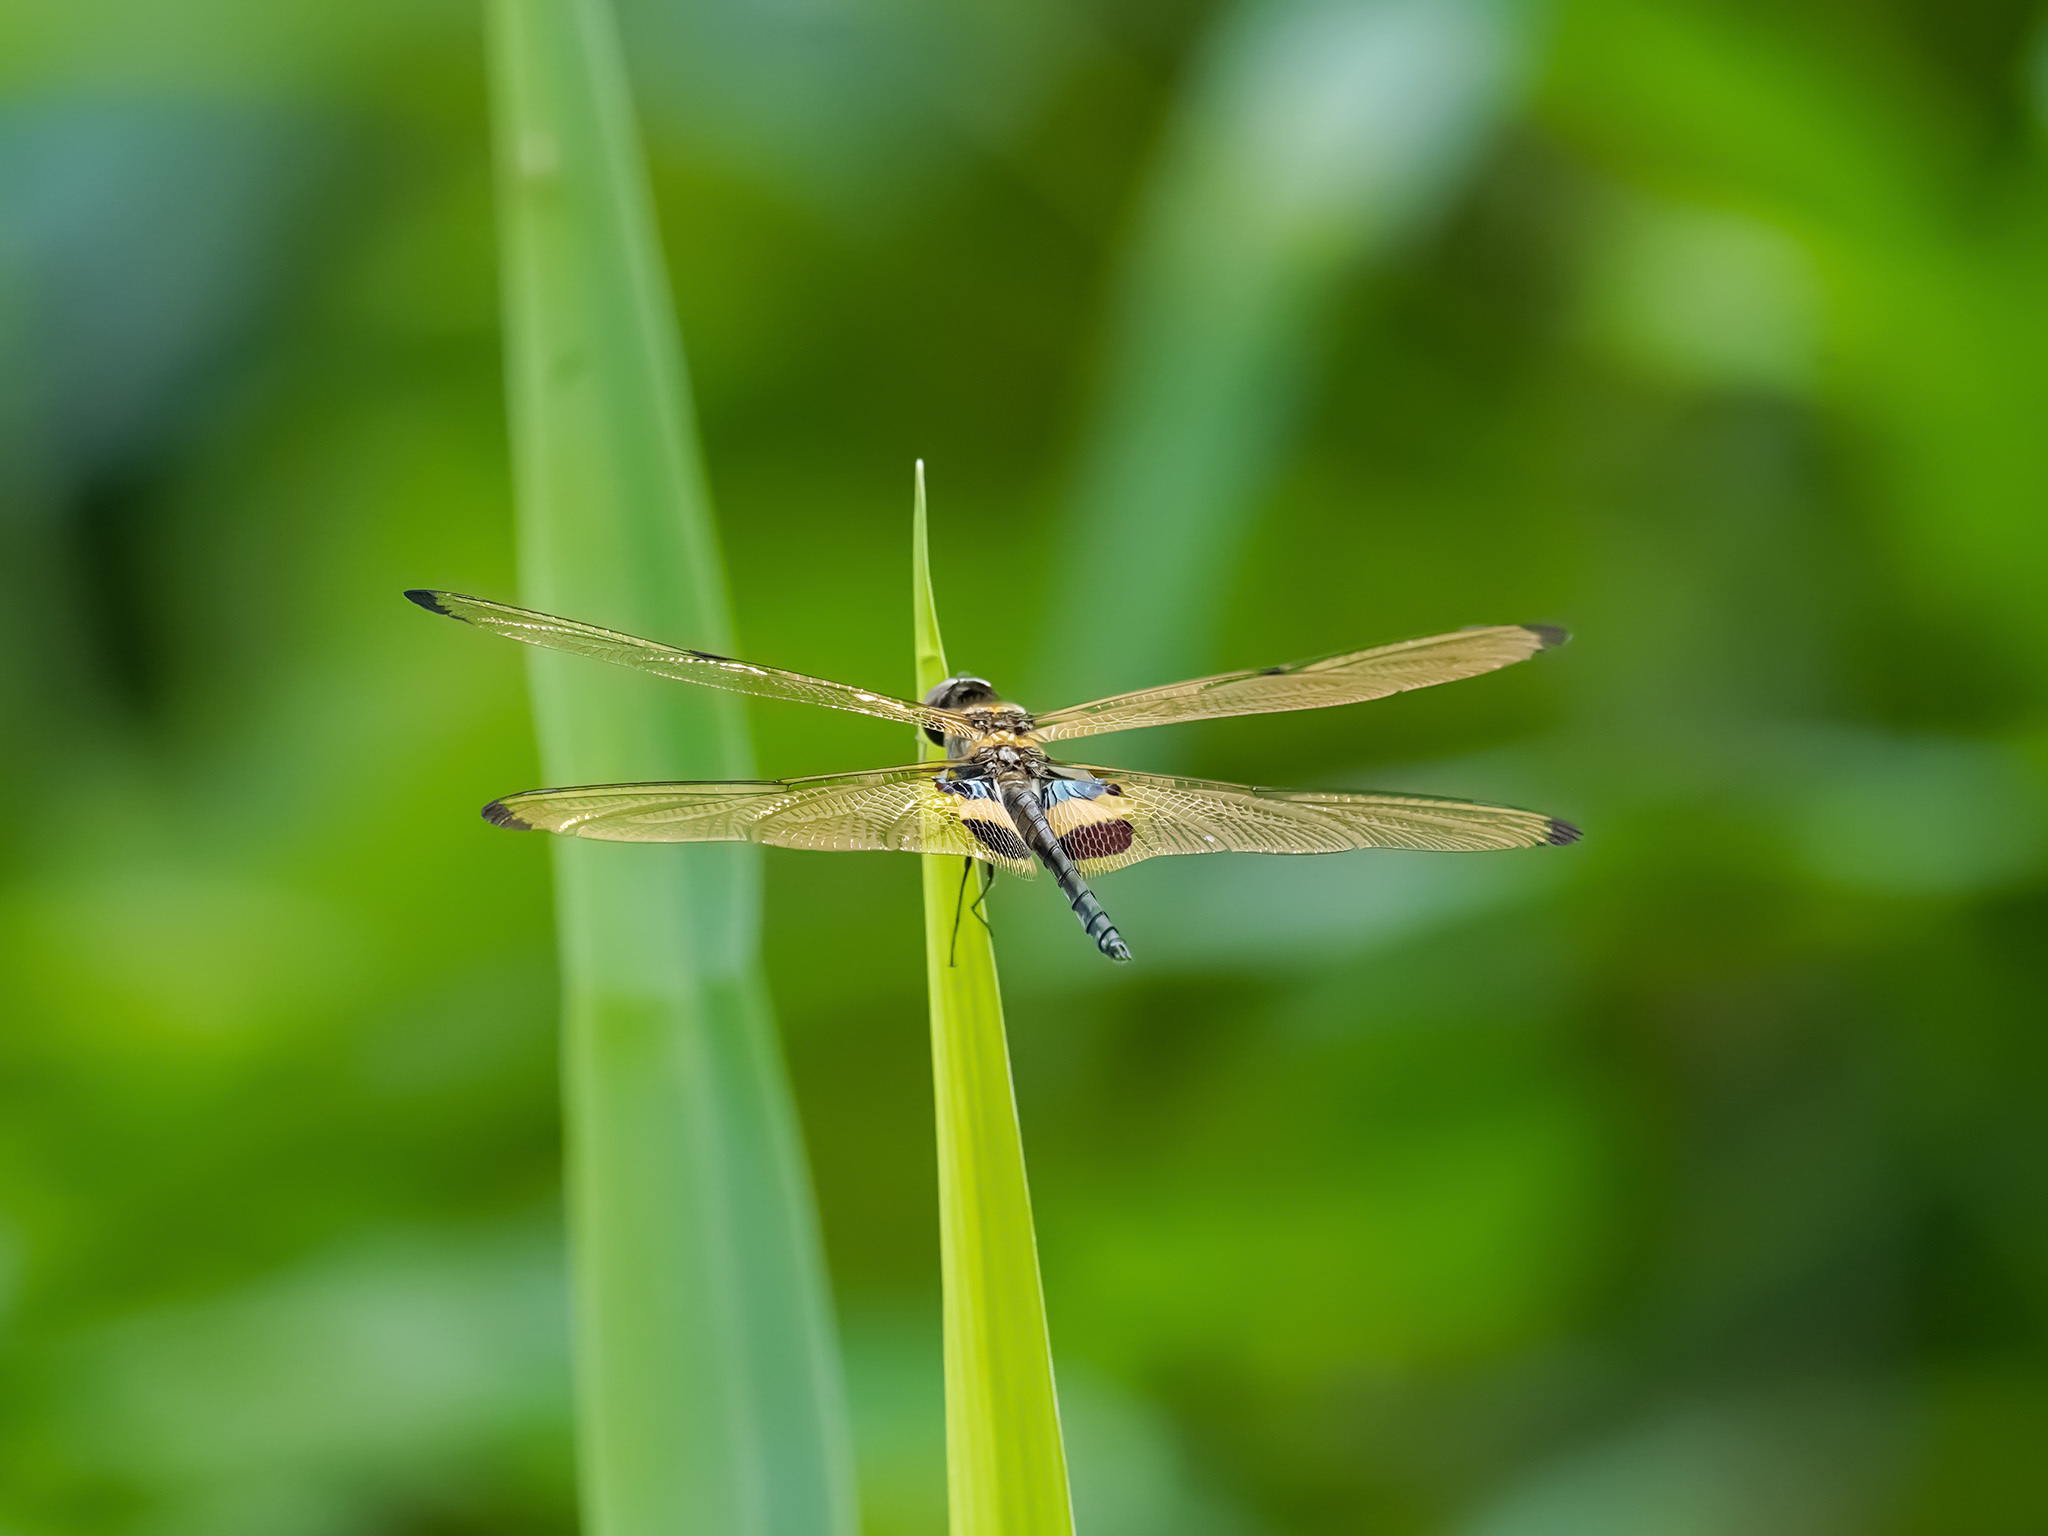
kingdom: Animalia
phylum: Arthropoda
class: Insecta
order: Odonata
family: Libellulidae
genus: Rhyothemis
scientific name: Rhyothemis phyllis
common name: Yellow-barred flutterer
